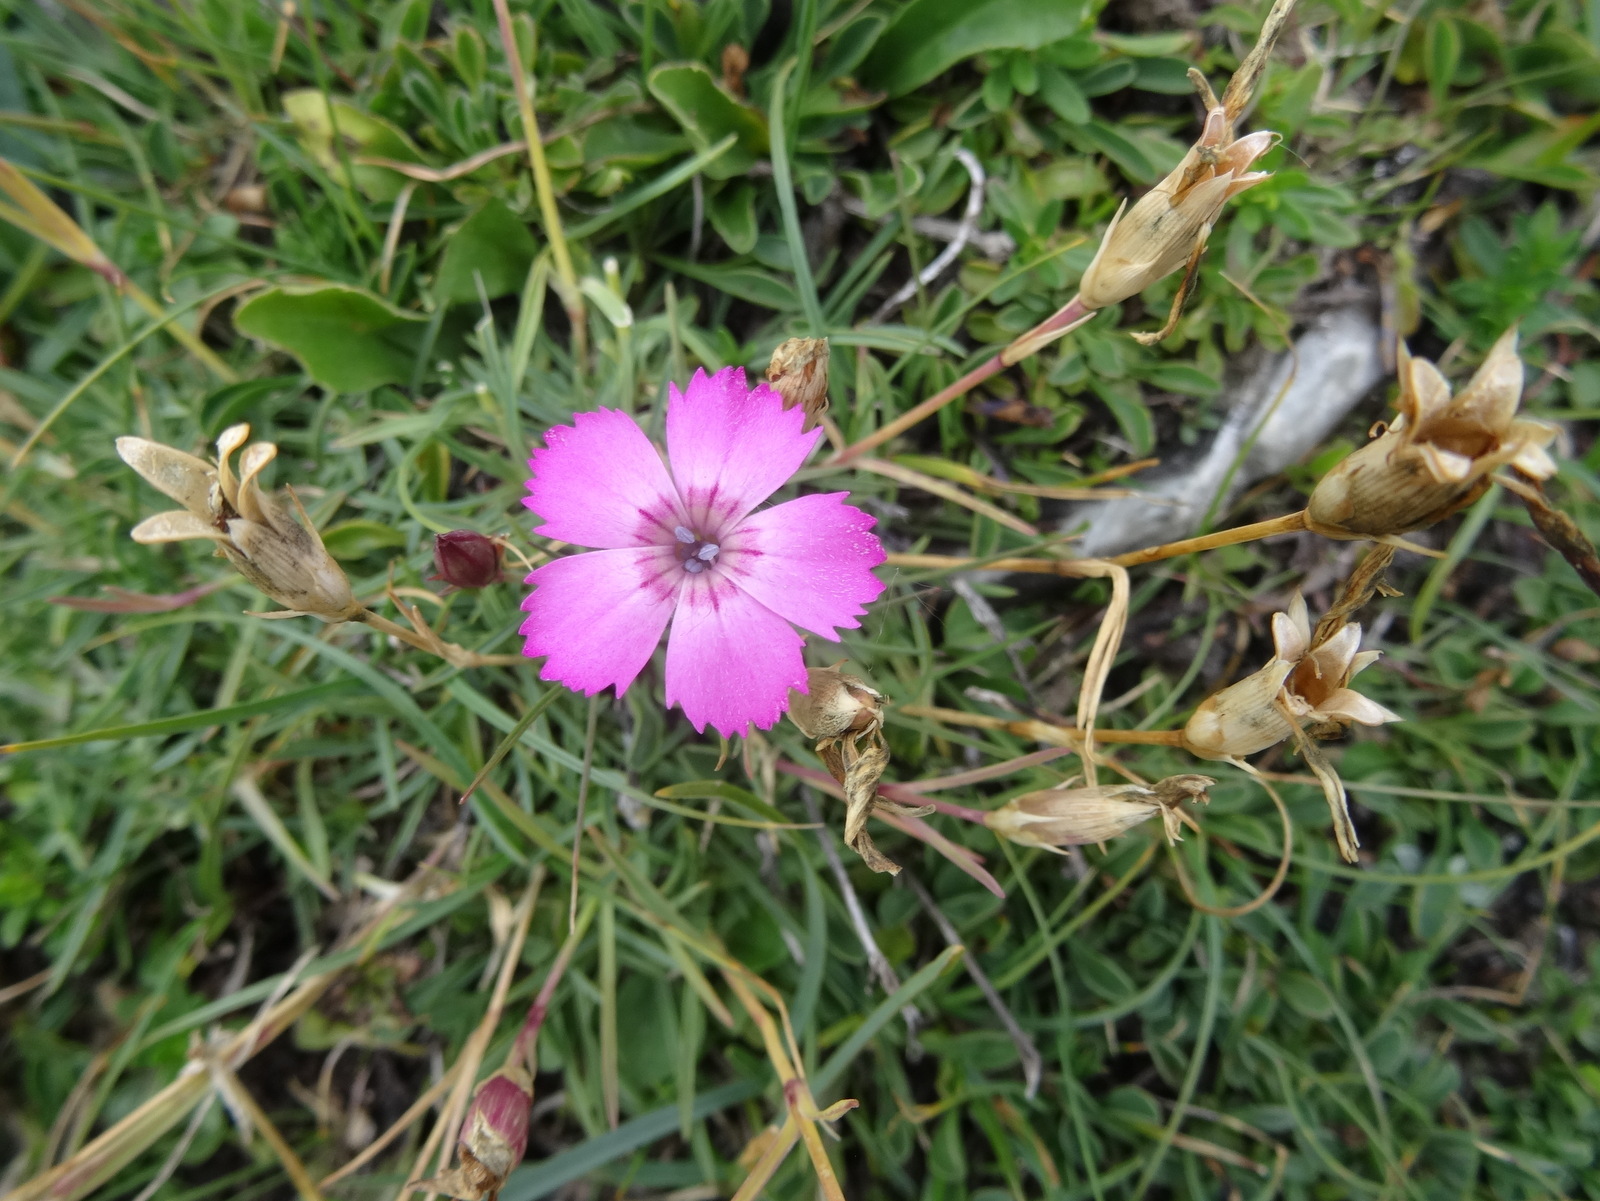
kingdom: Plantae
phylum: Tracheophyta
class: Magnoliopsida
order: Caryophyllales
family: Caryophyllaceae
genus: Dianthus
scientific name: Dianthus pavonius
